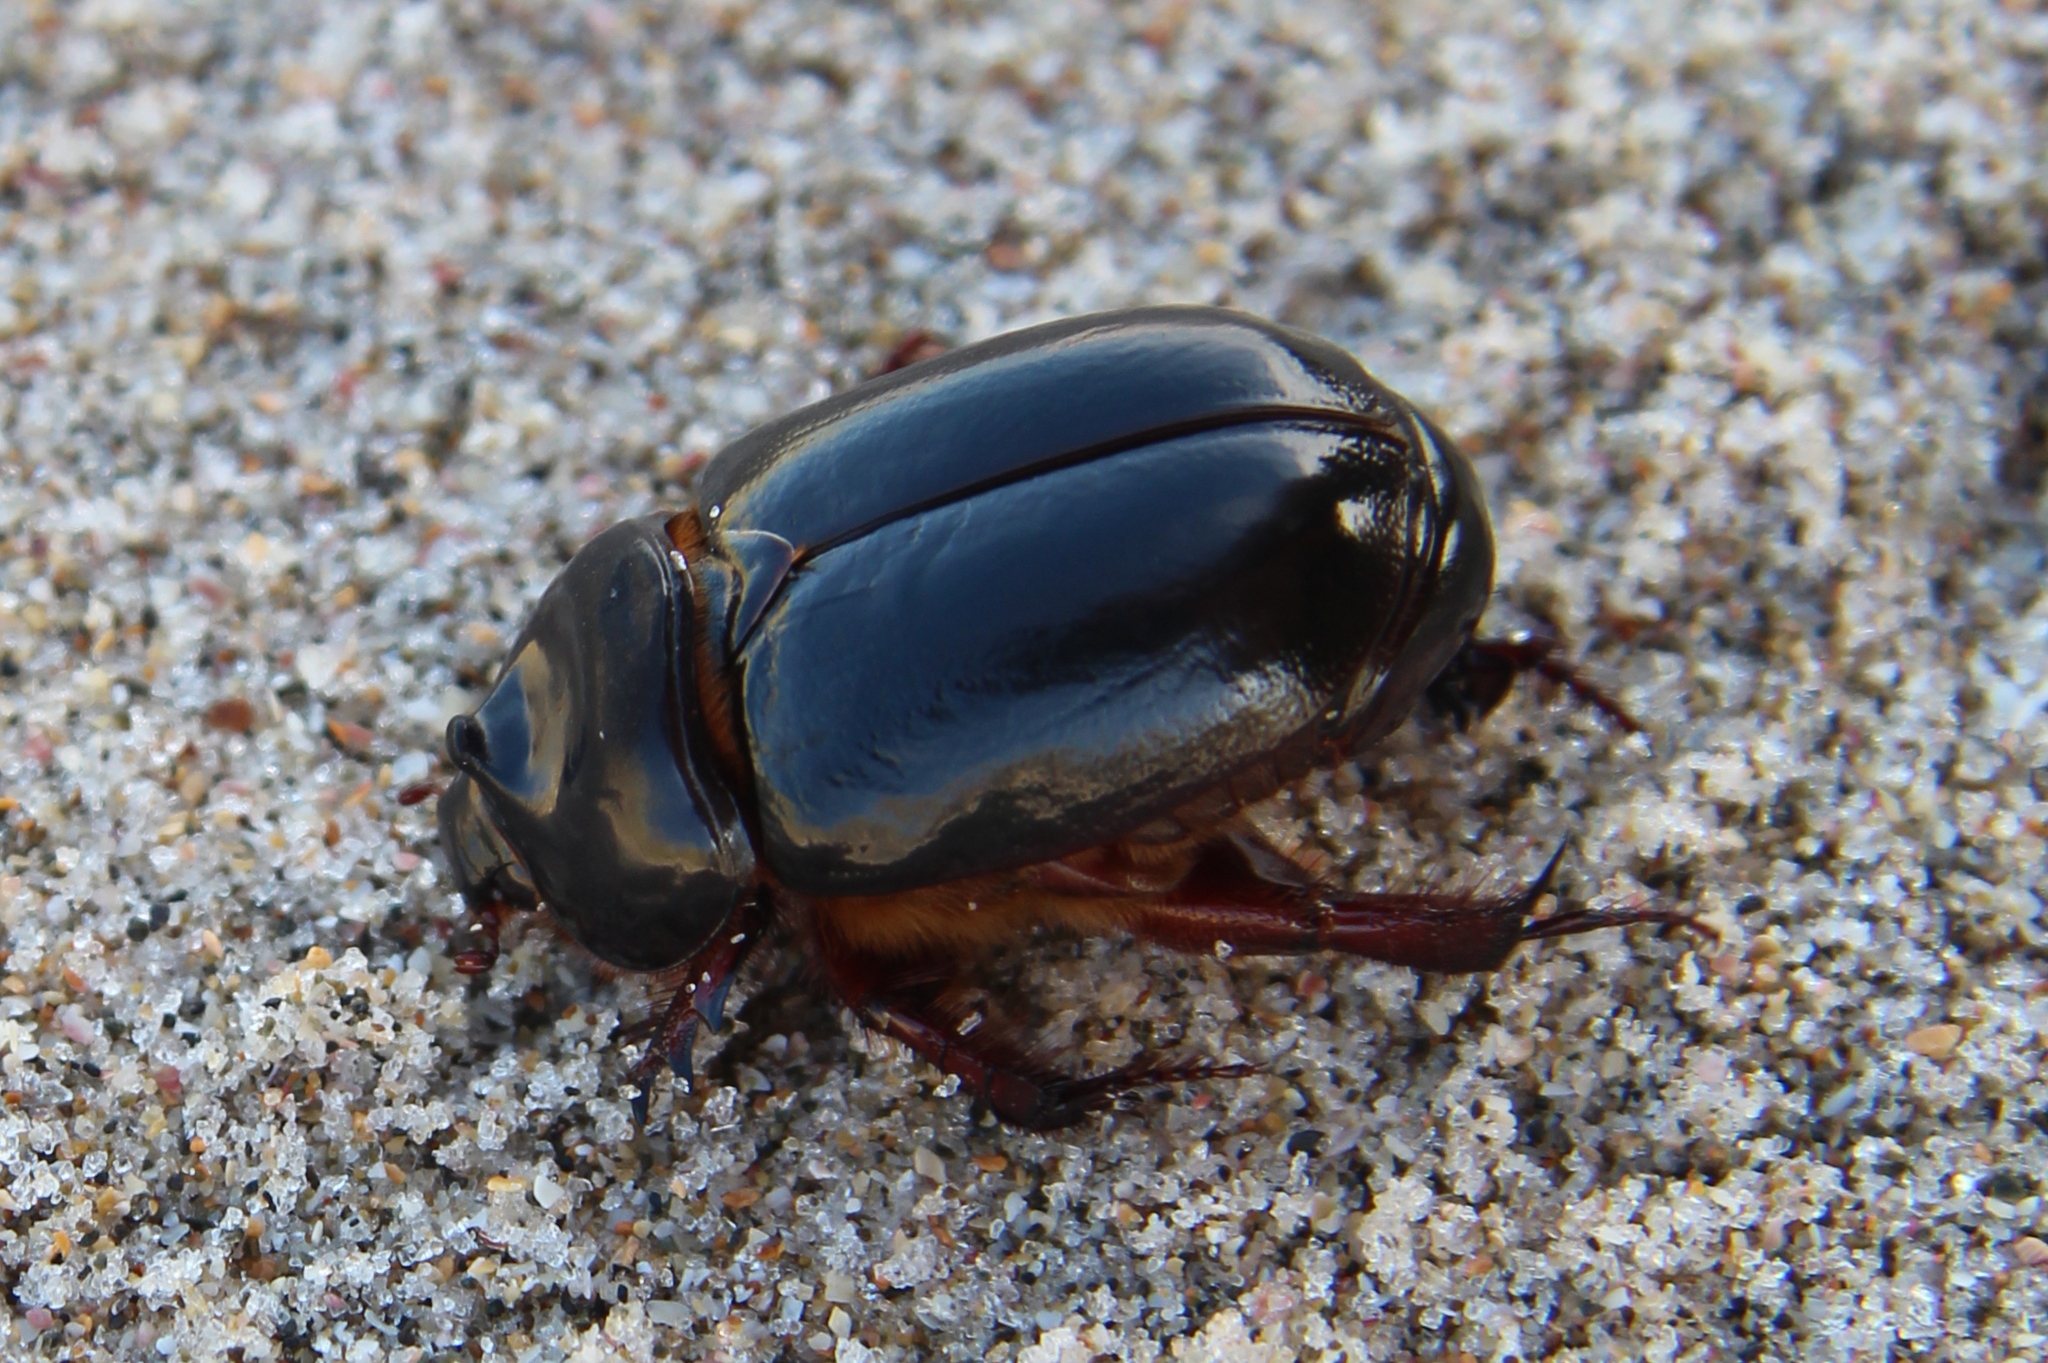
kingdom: Animalia
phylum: Arthropoda
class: Insecta
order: Coleoptera
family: Scarabaeidae
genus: Pericoptus
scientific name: Pericoptus truncatus
